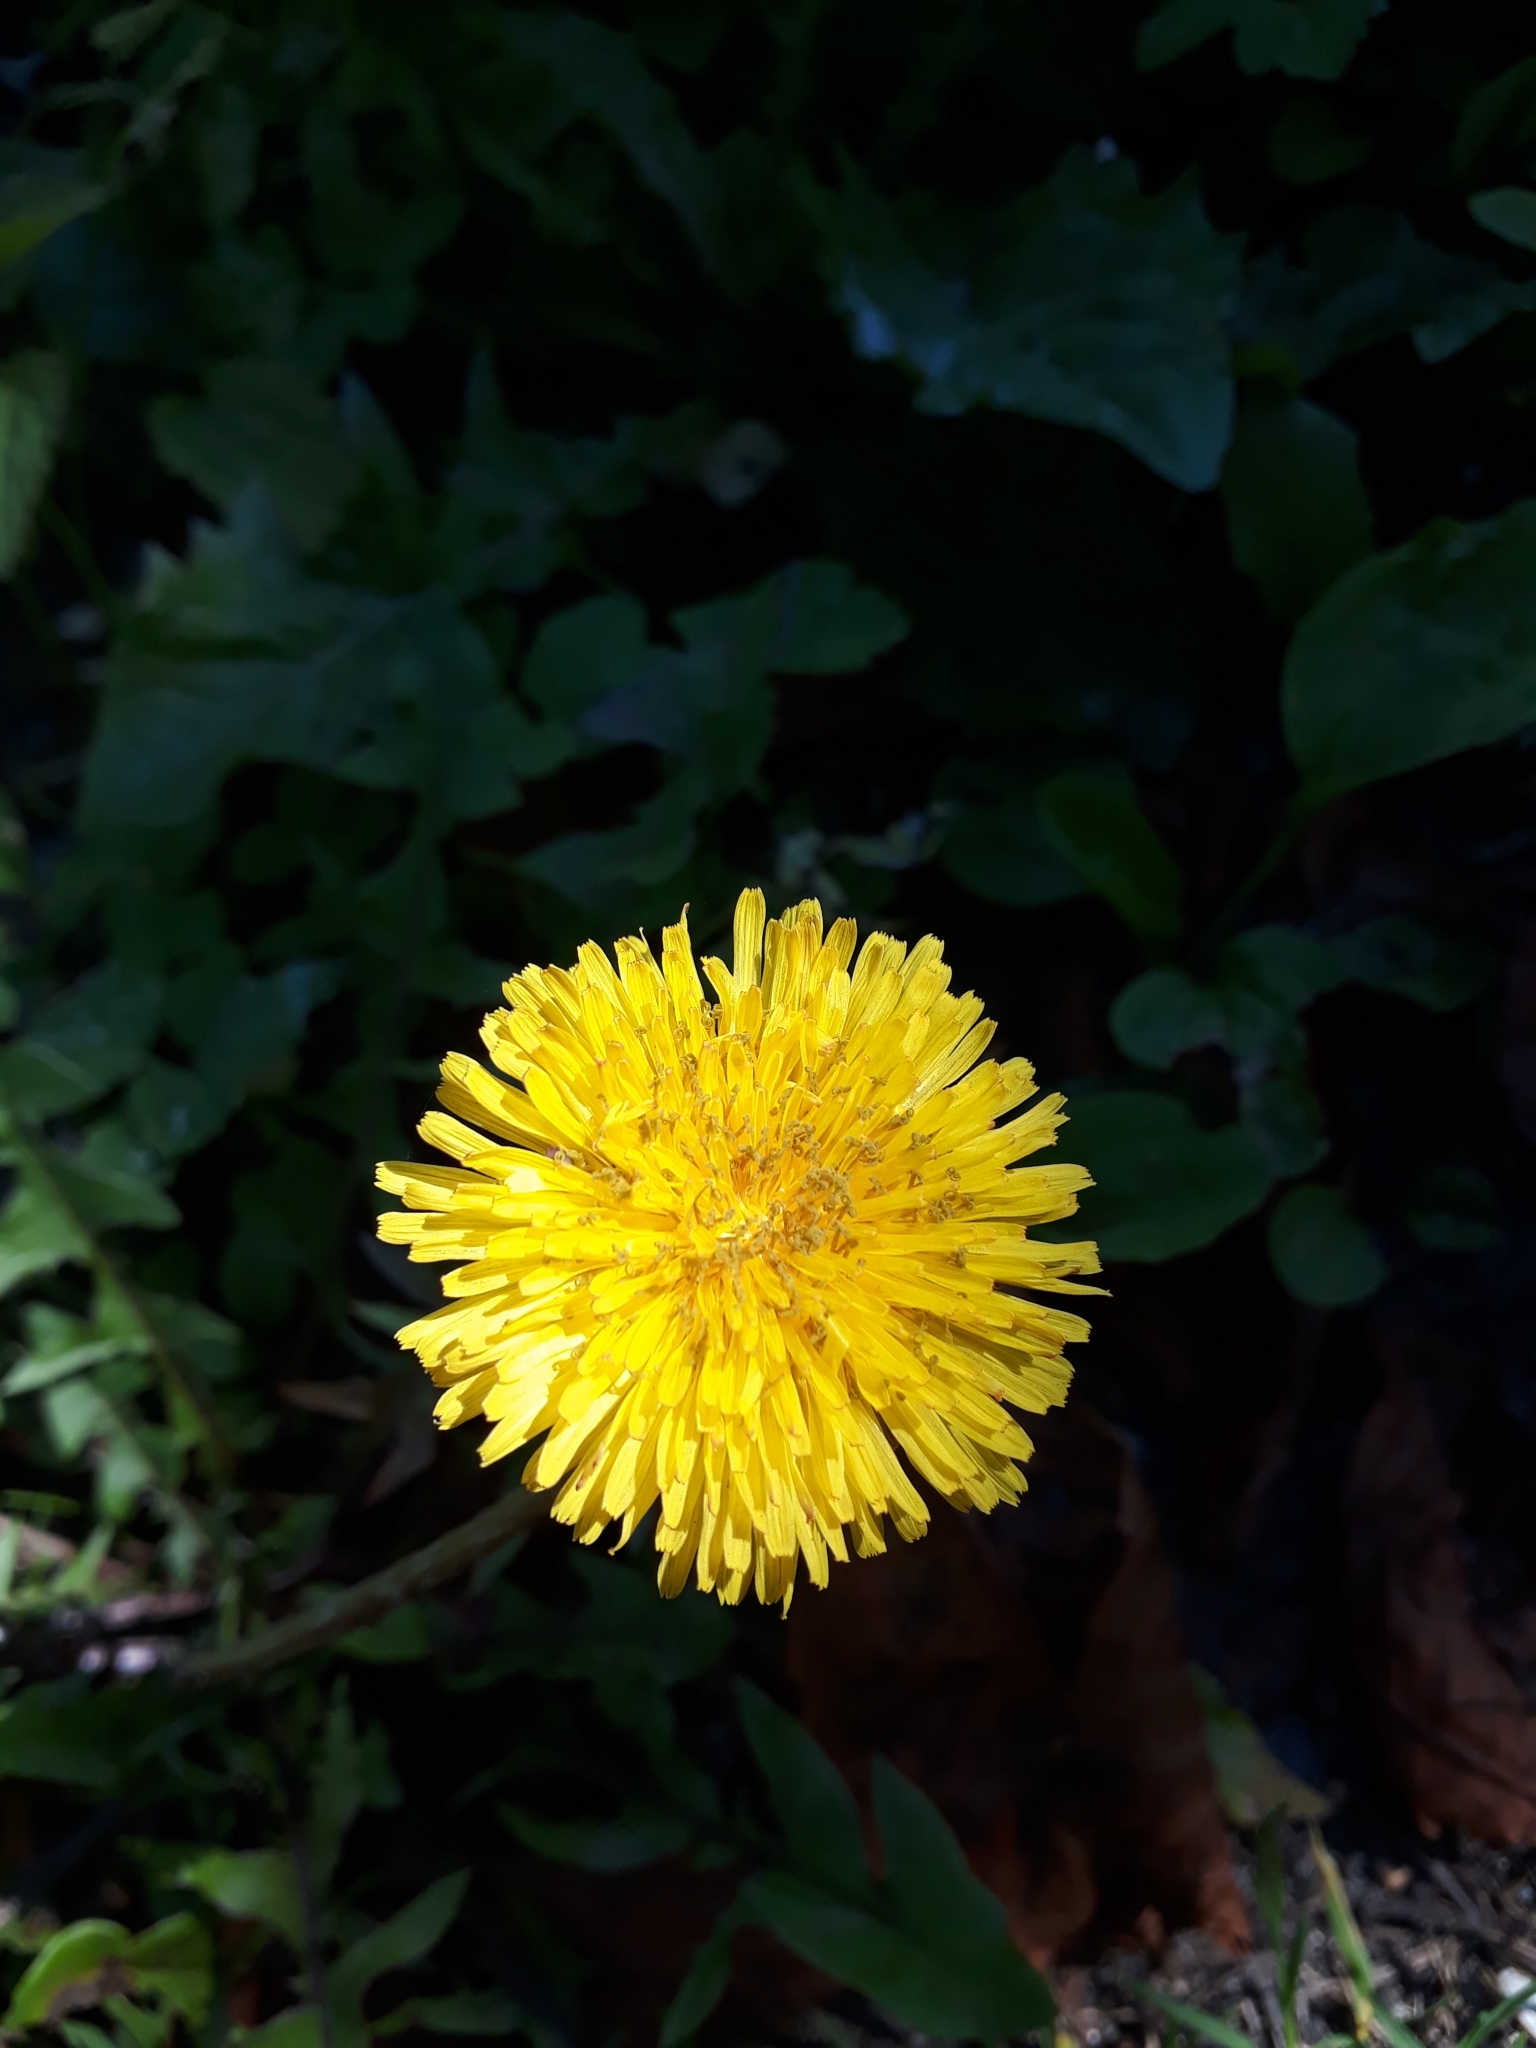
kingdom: Plantae
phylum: Tracheophyta
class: Magnoliopsida
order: Asterales
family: Asteraceae
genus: Taraxacum
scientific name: Taraxacum officinale
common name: Common dandelion
